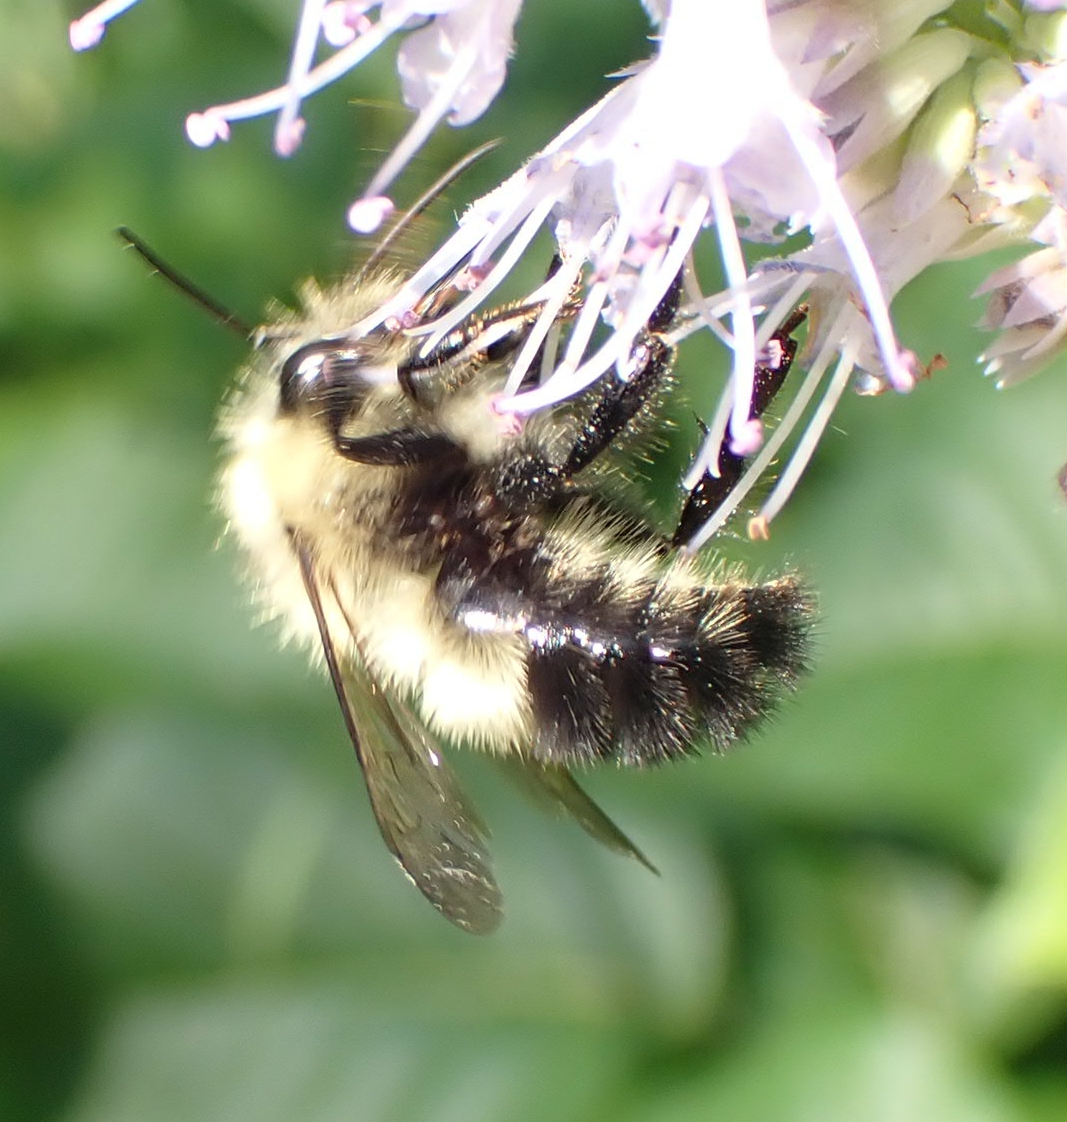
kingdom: Animalia
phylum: Arthropoda
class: Insecta
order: Hymenoptera
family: Apidae
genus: Pyrobombus
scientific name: Pyrobombus
